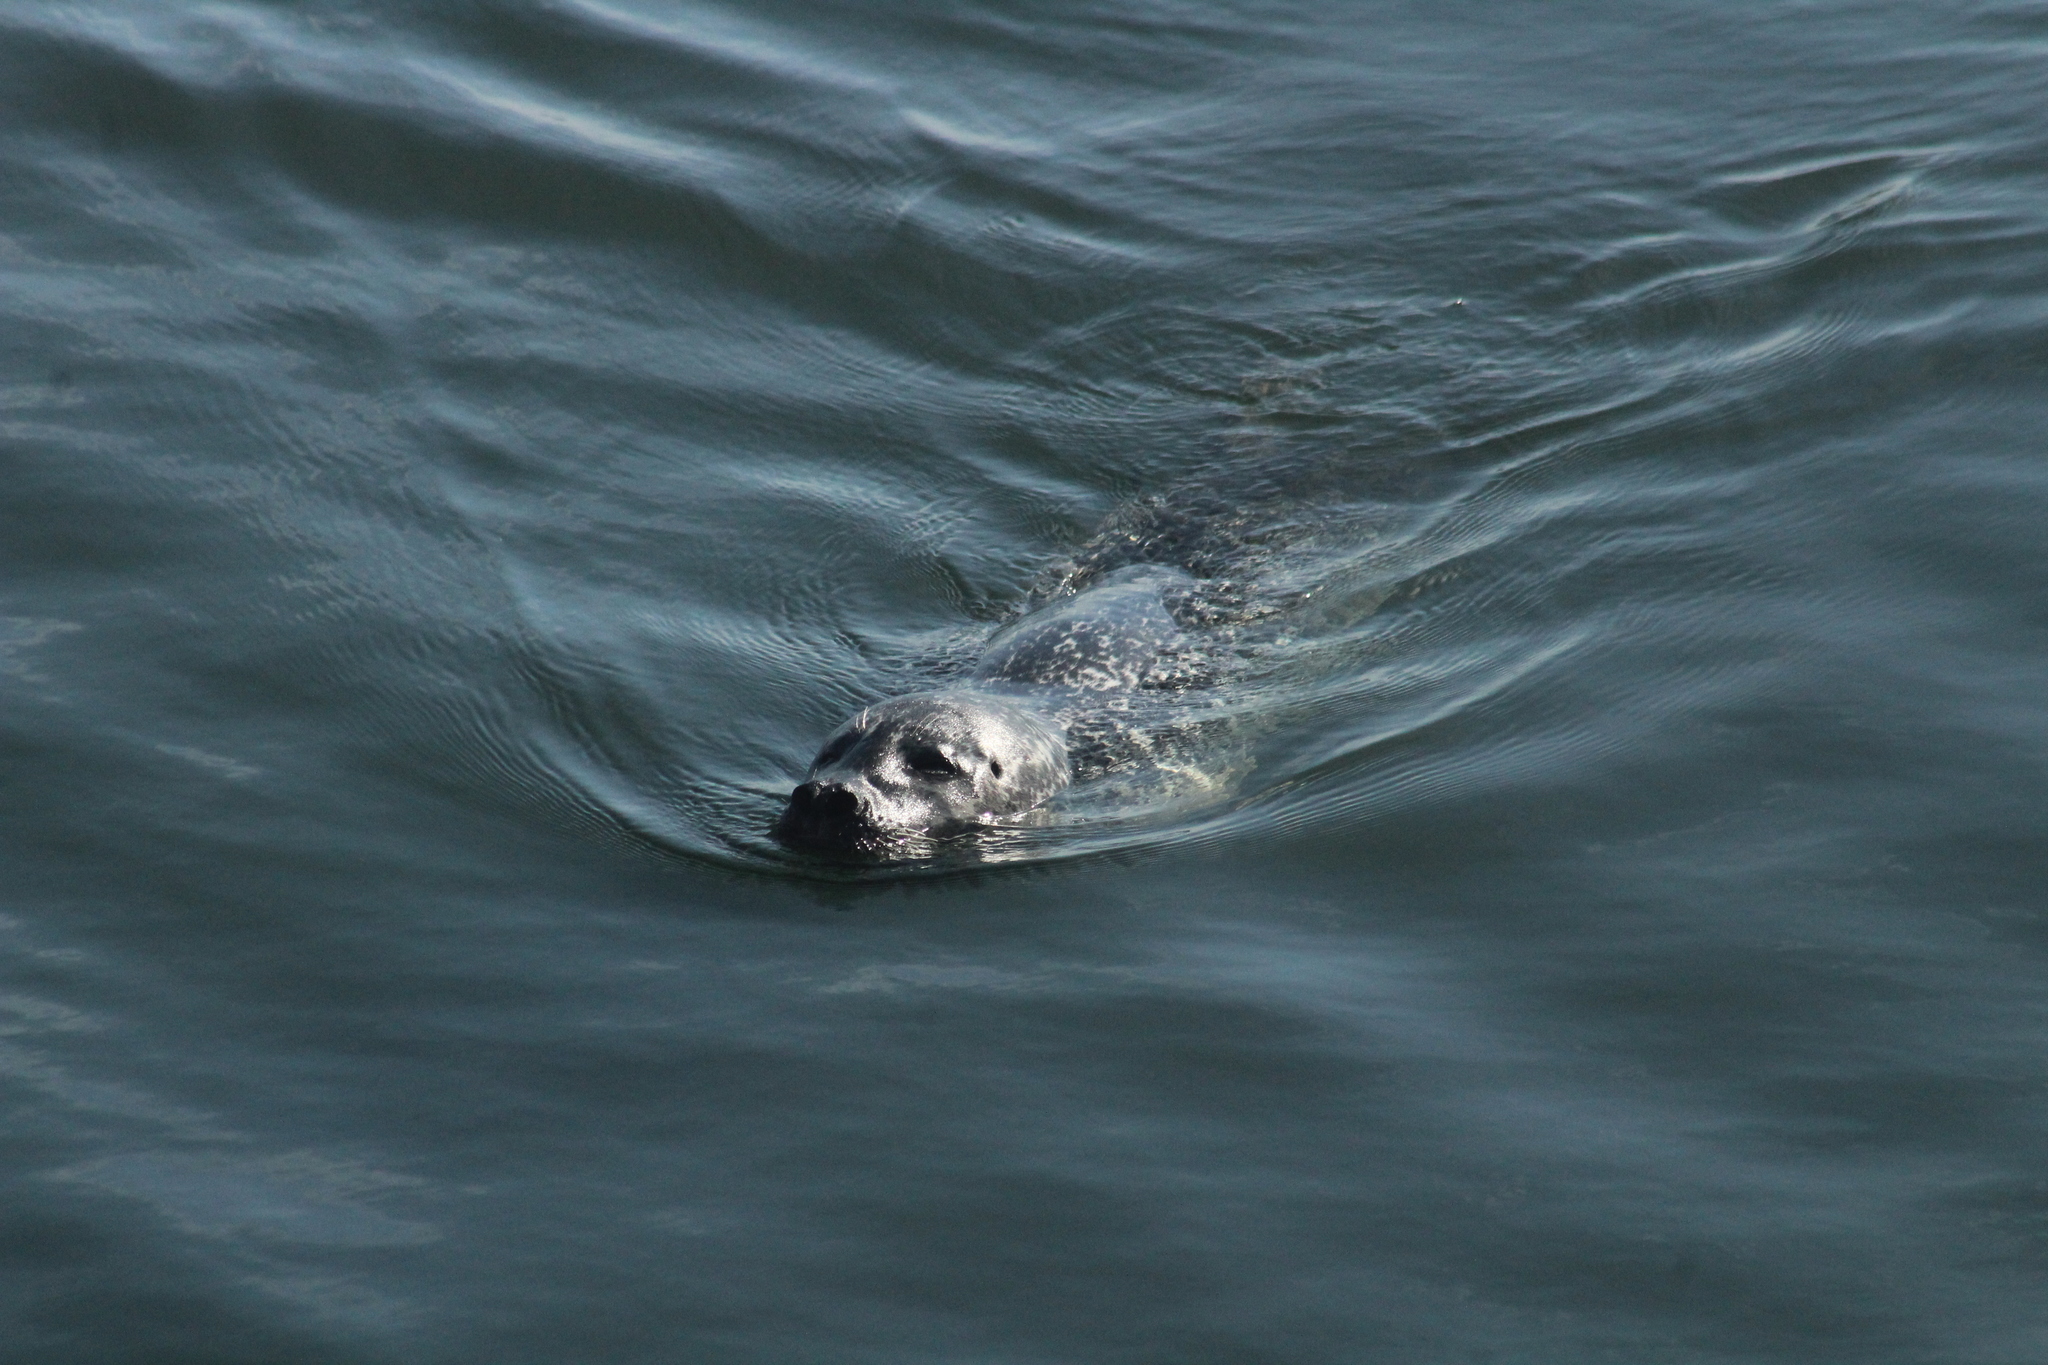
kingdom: Animalia
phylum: Chordata
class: Mammalia
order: Carnivora
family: Phocidae
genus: Phoca
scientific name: Phoca vitulina
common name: Harbor seal
